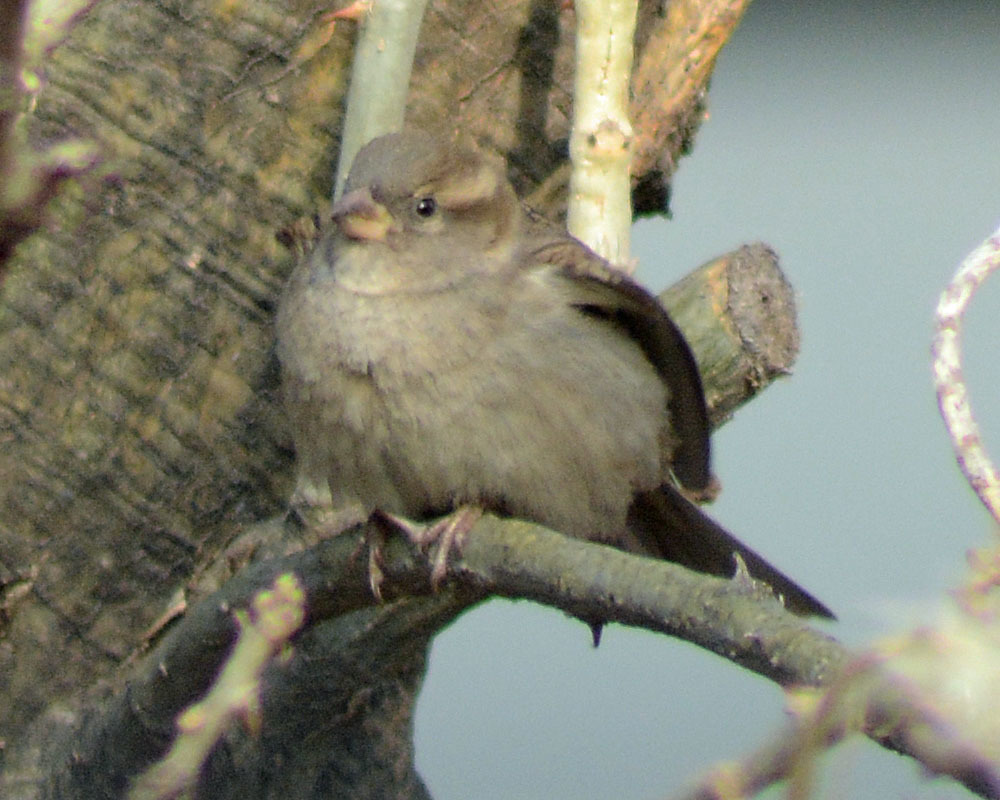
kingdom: Animalia
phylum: Chordata
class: Aves
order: Passeriformes
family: Passeridae
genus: Passer
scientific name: Passer domesticus
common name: House sparrow
